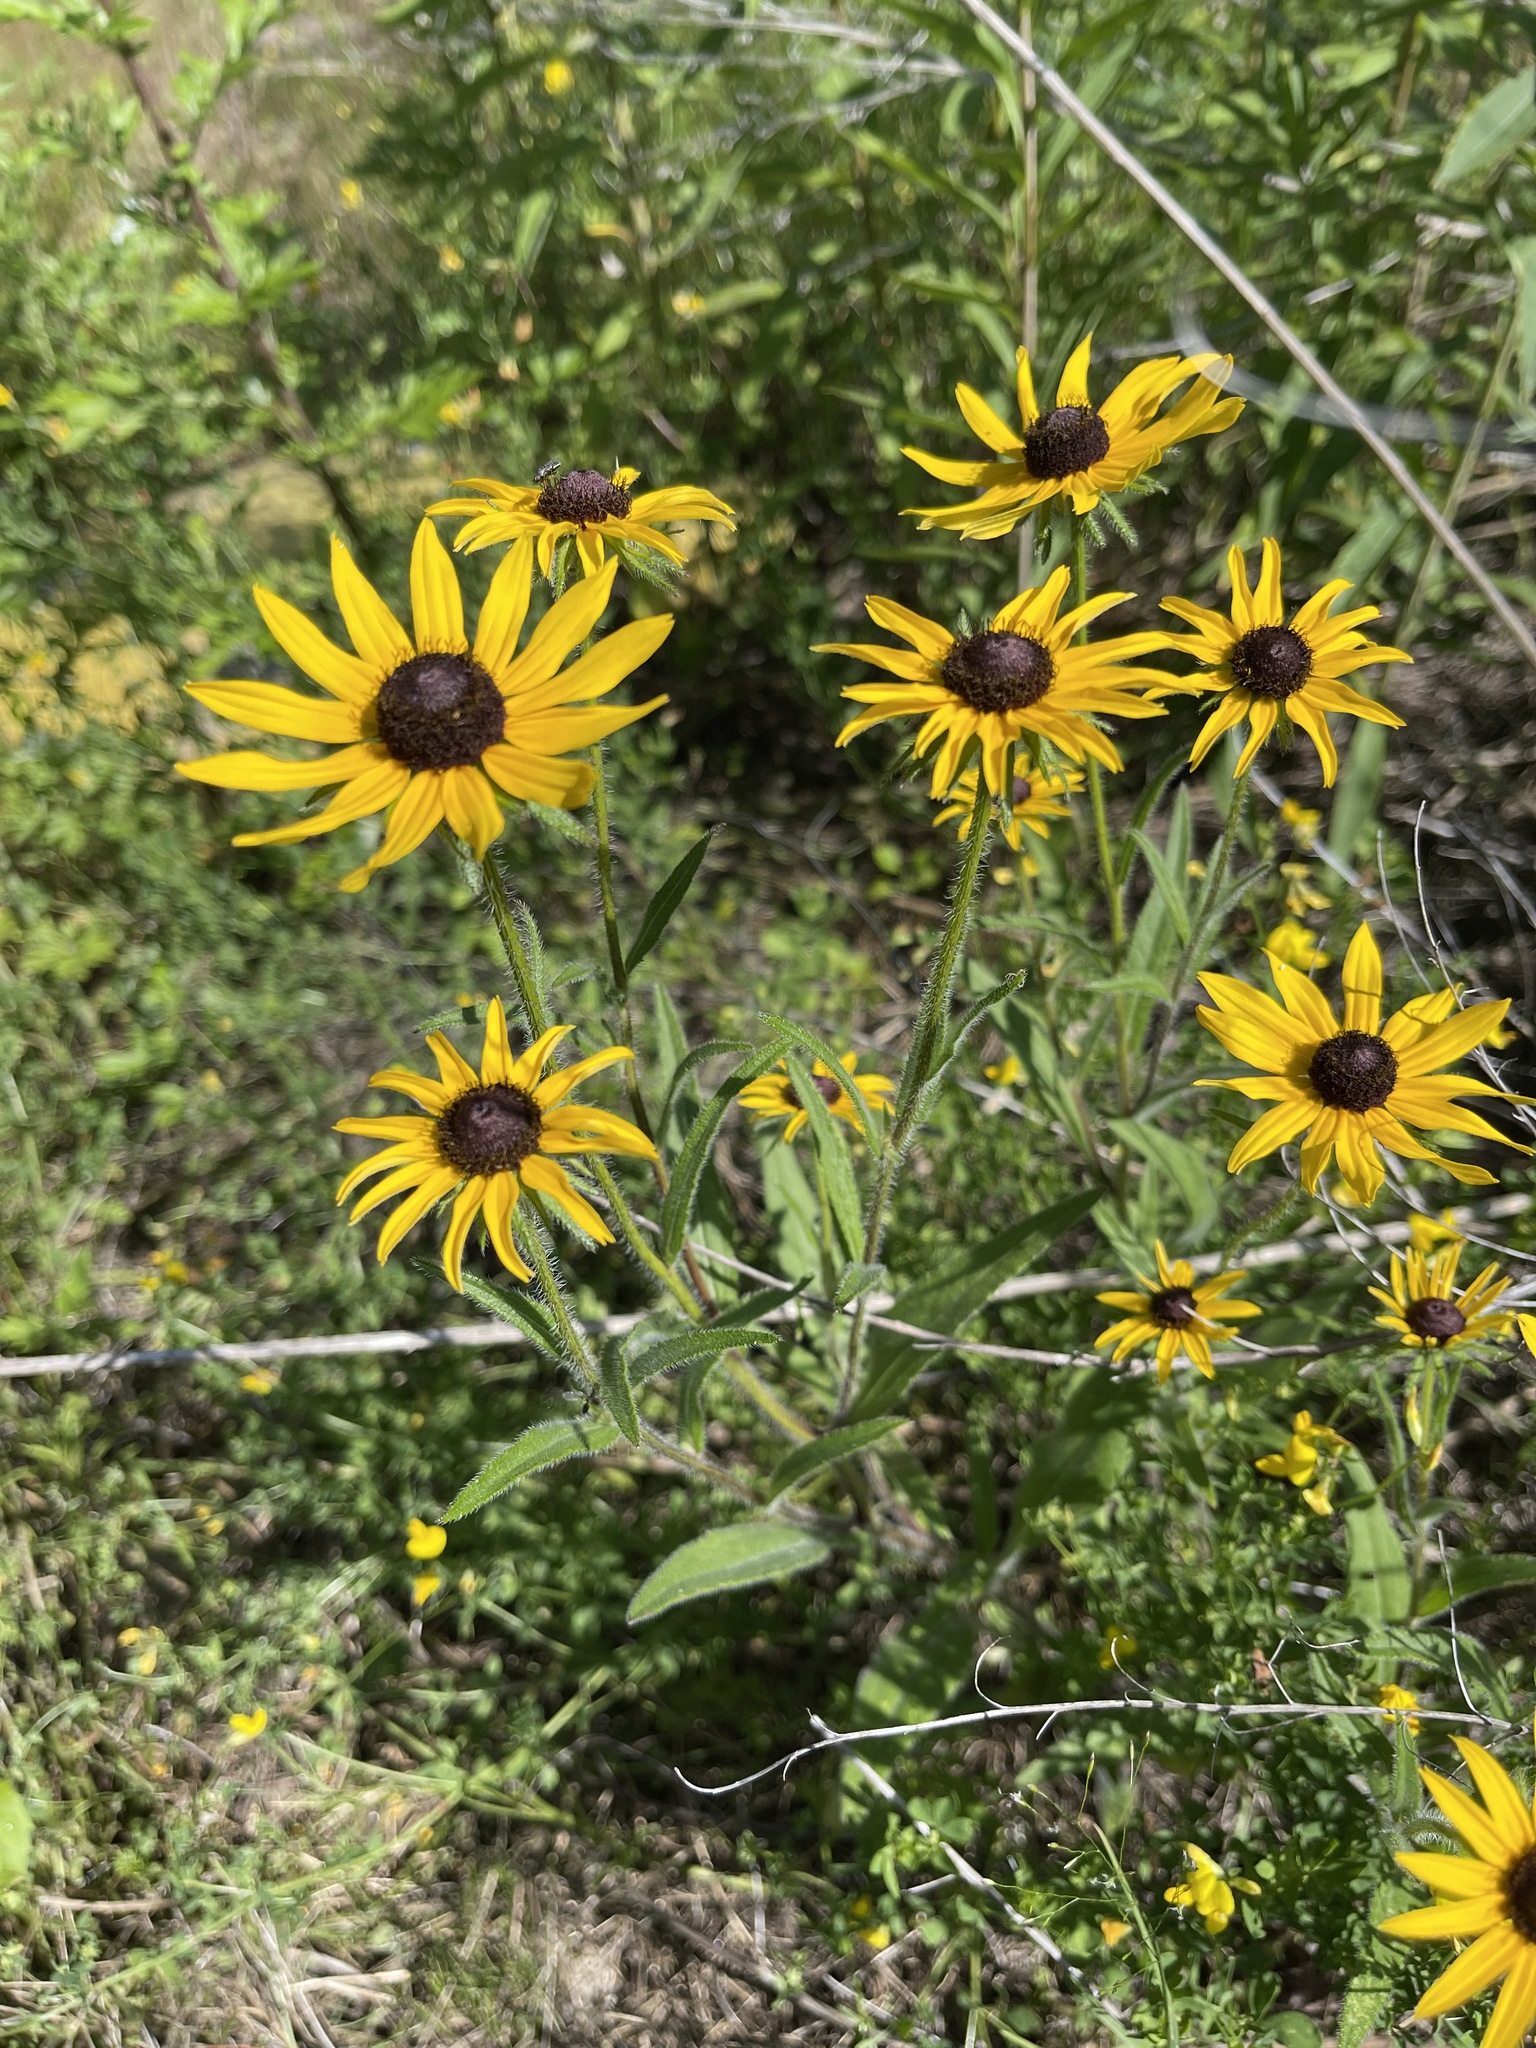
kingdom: Plantae
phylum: Tracheophyta
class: Magnoliopsida
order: Asterales
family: Asteraceae
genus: Rudbeckia
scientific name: Rudbeckia hirta
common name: Black-eyed-susan
